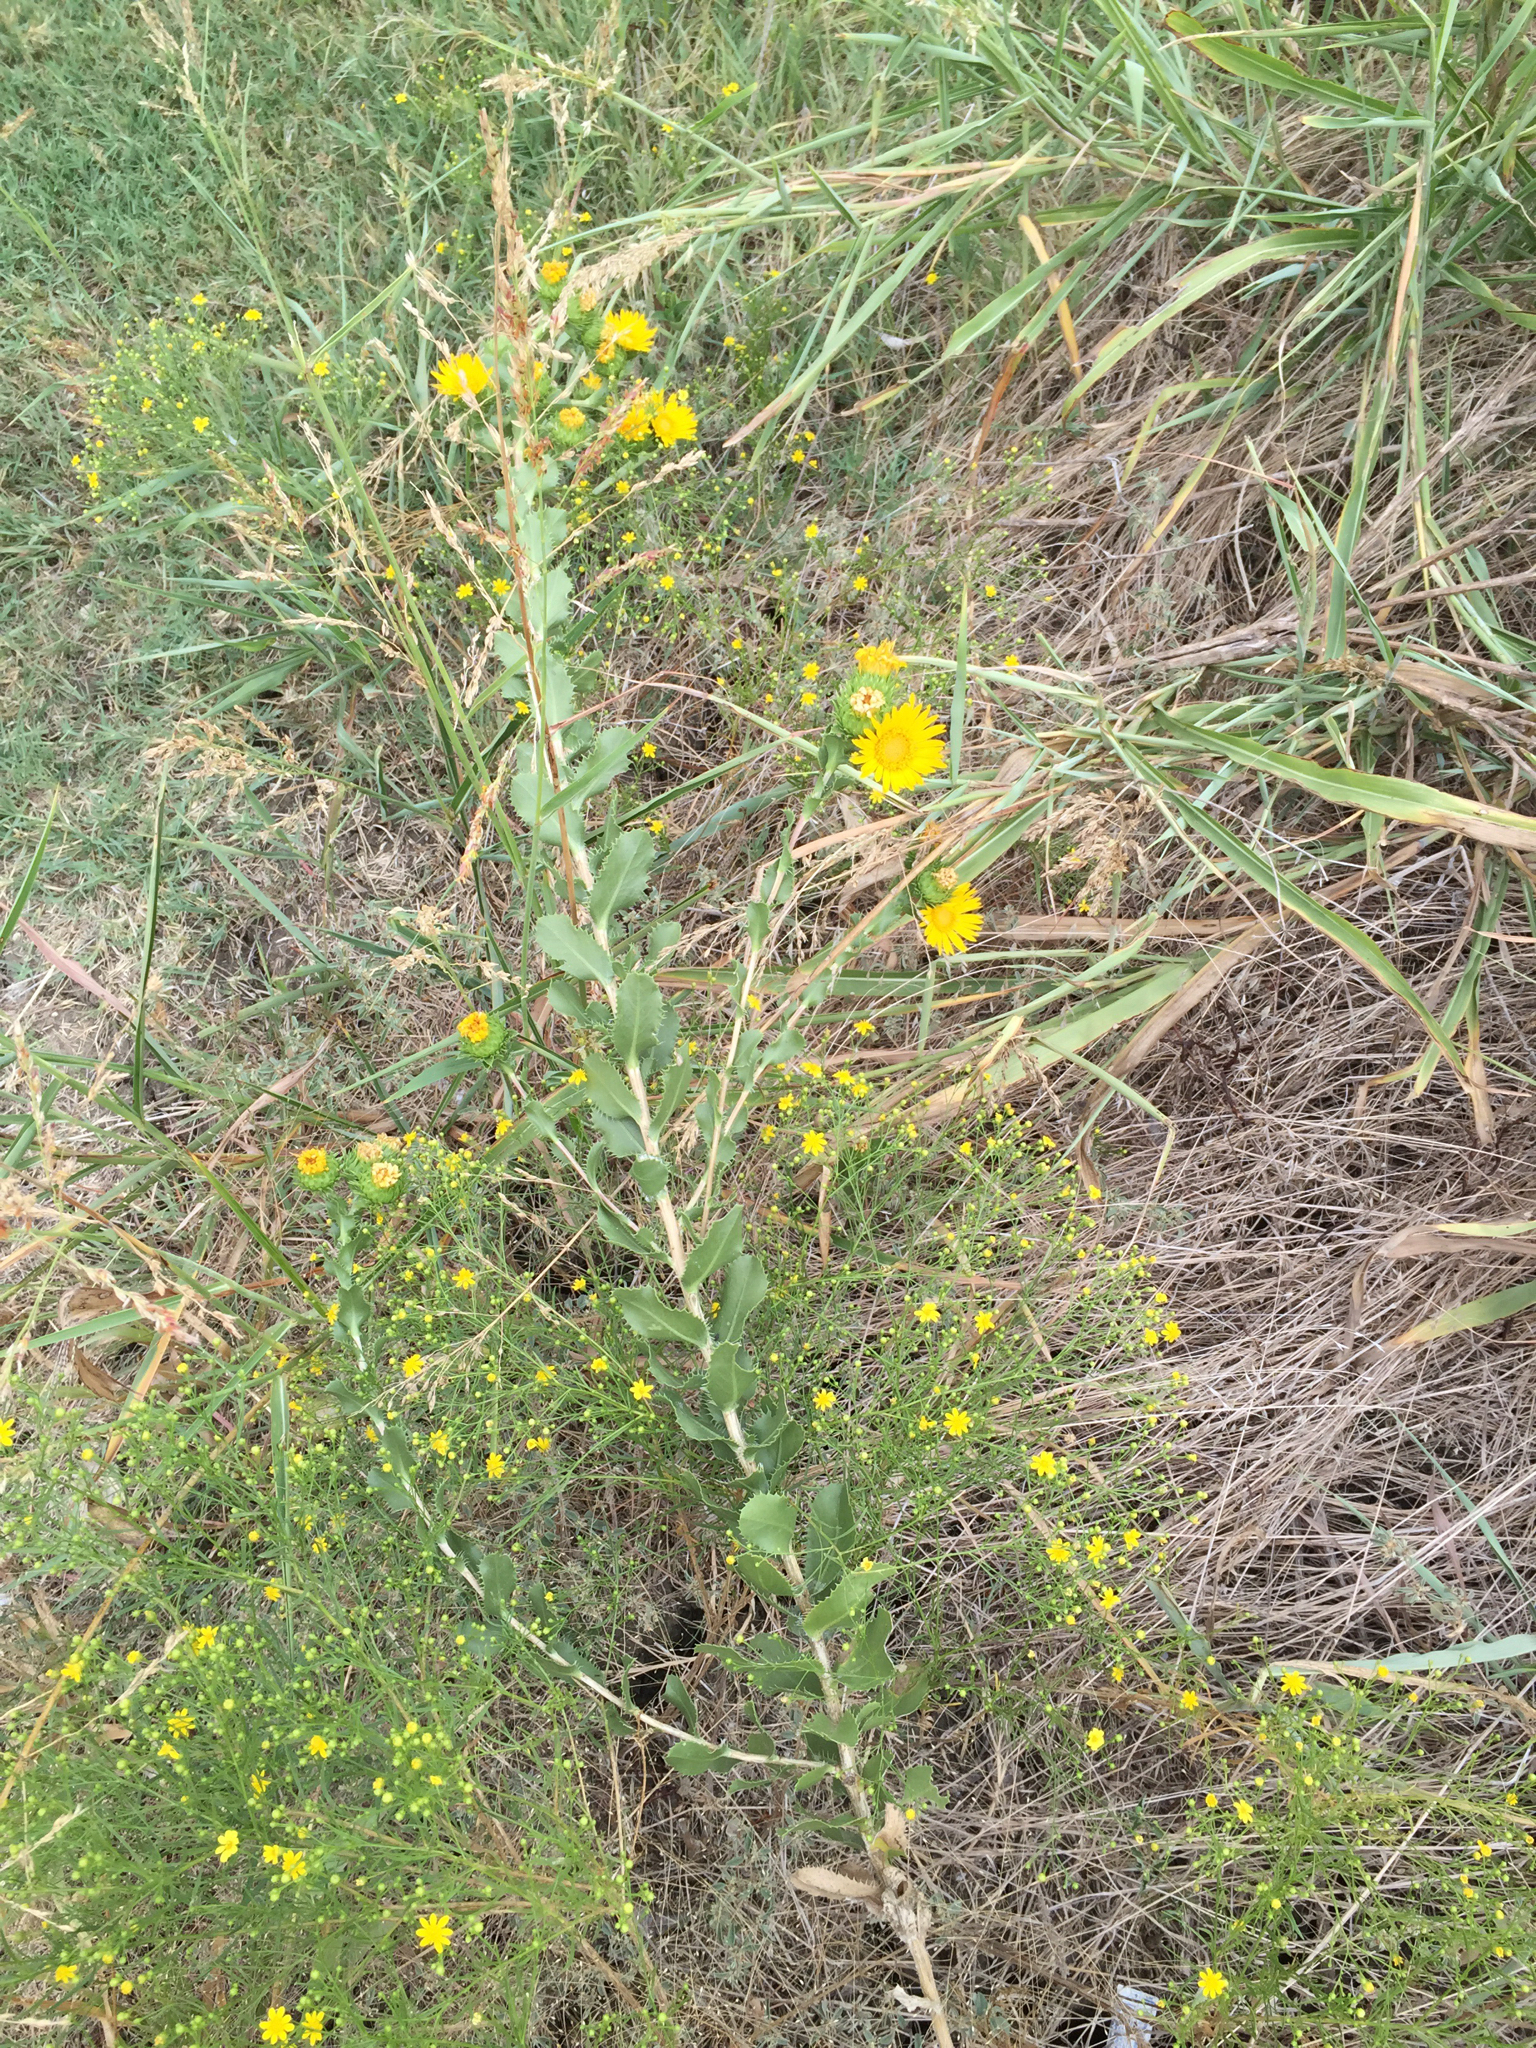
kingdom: Plantae
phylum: Tracheophyta
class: Magnoliopsida
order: Asterales
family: Asteraceae
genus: Grindelia
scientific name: Grindelia ciliata
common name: Goldenweed
